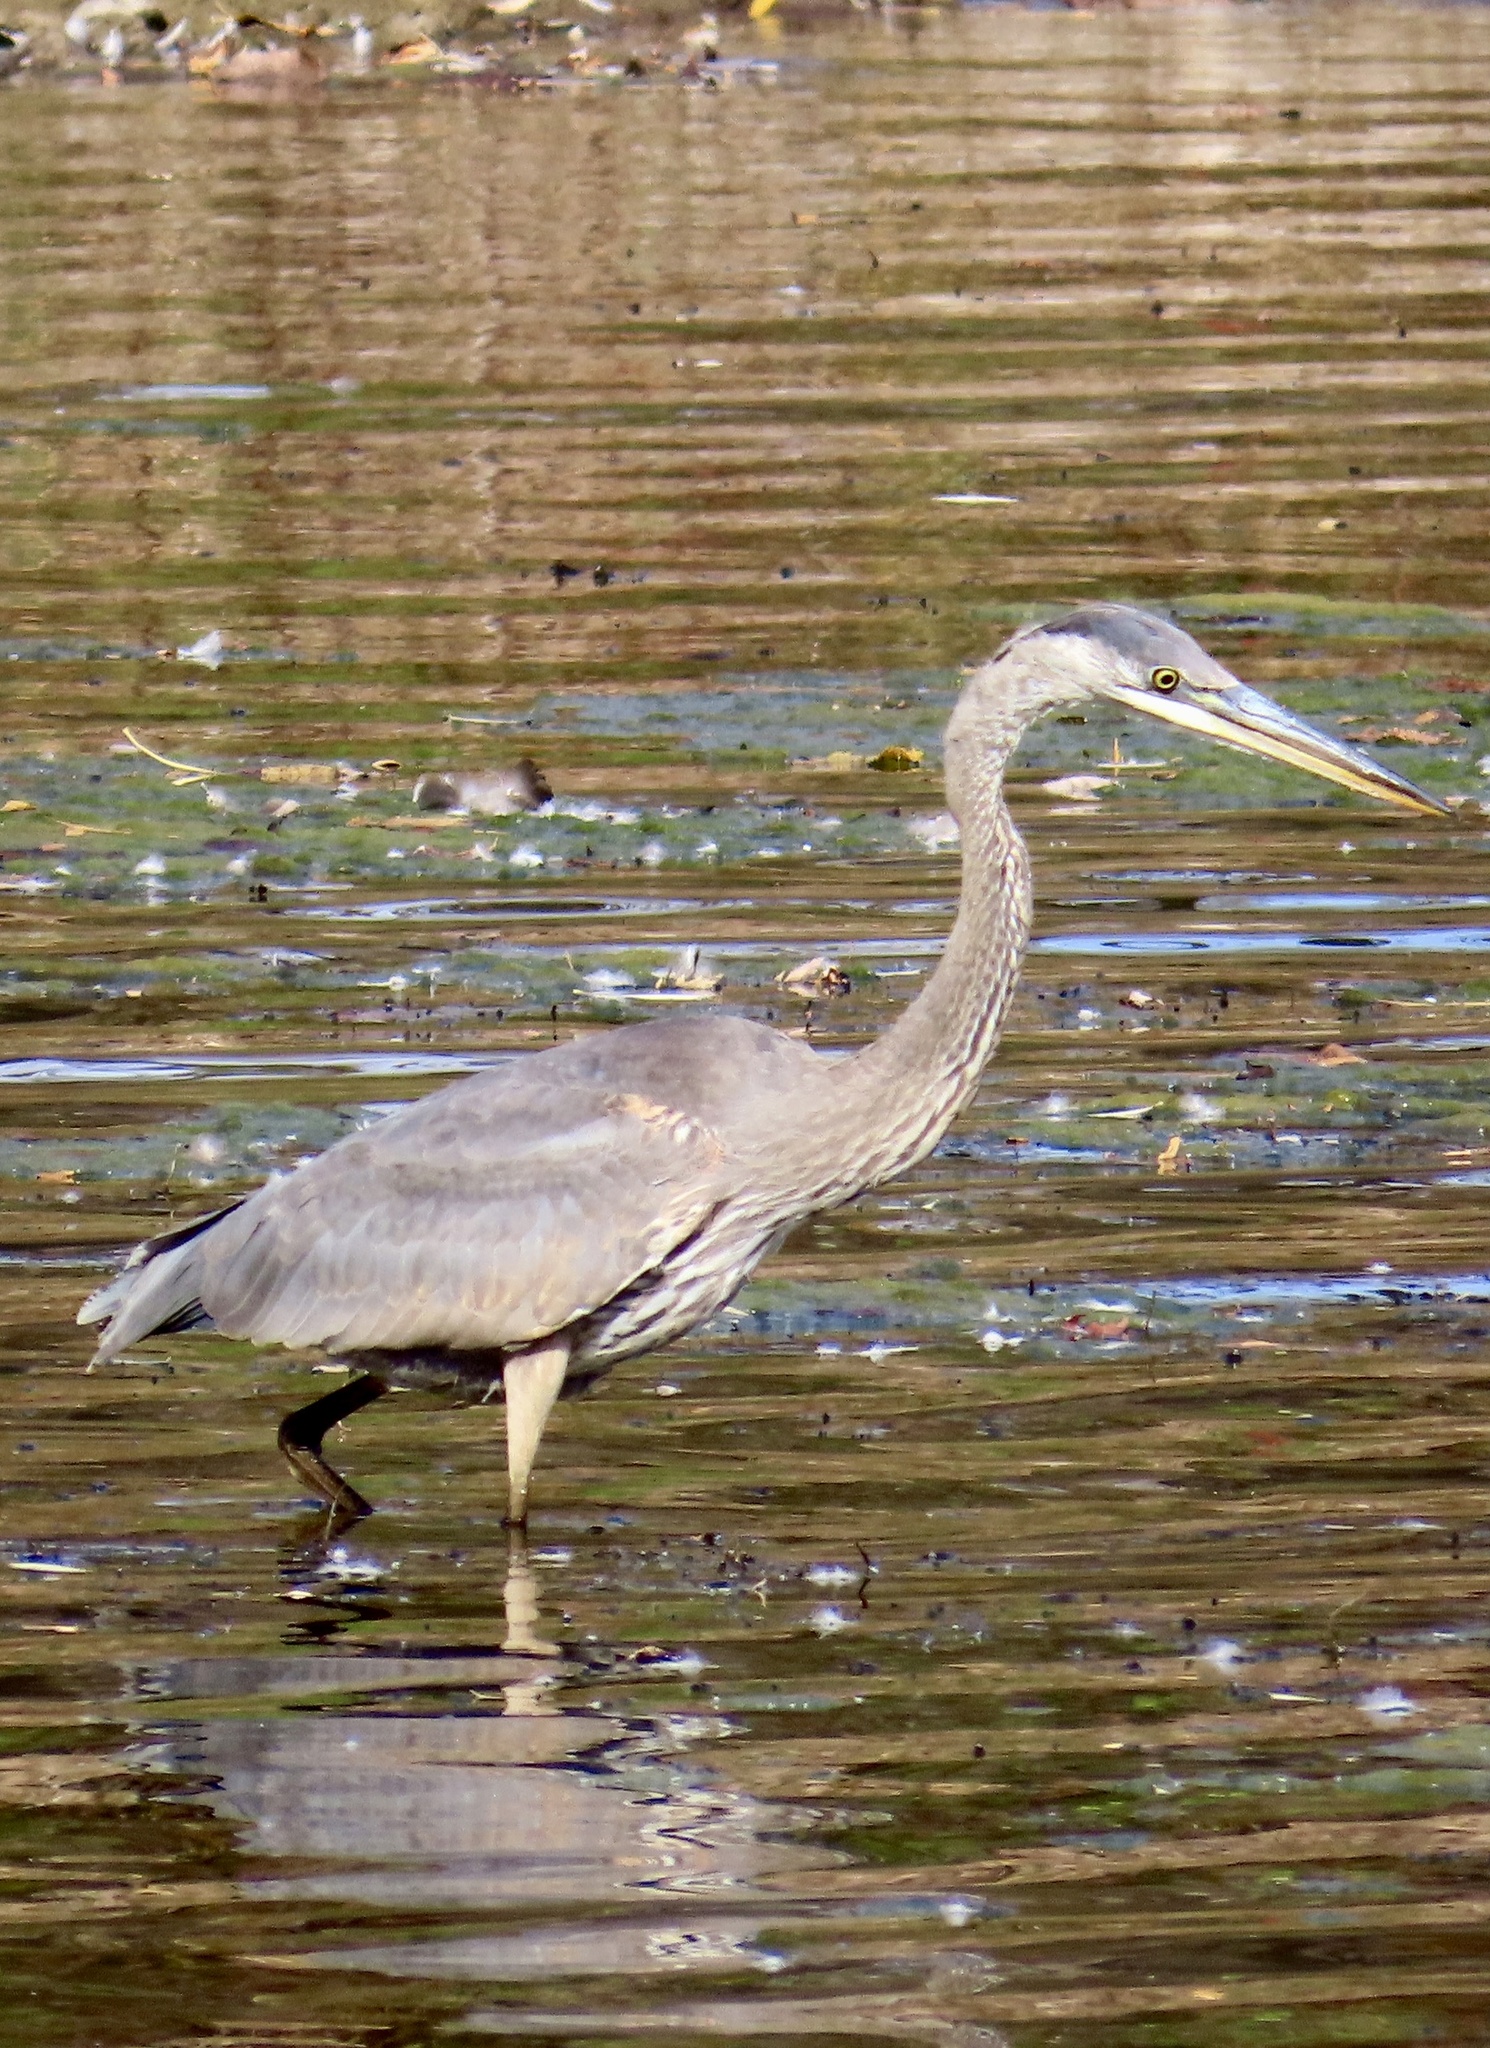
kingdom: Animalia
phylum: Chordata
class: Aves
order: Pelecaniformes
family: Ardeidae
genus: Ardea
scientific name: Ardea herodias
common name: Great blue heron
